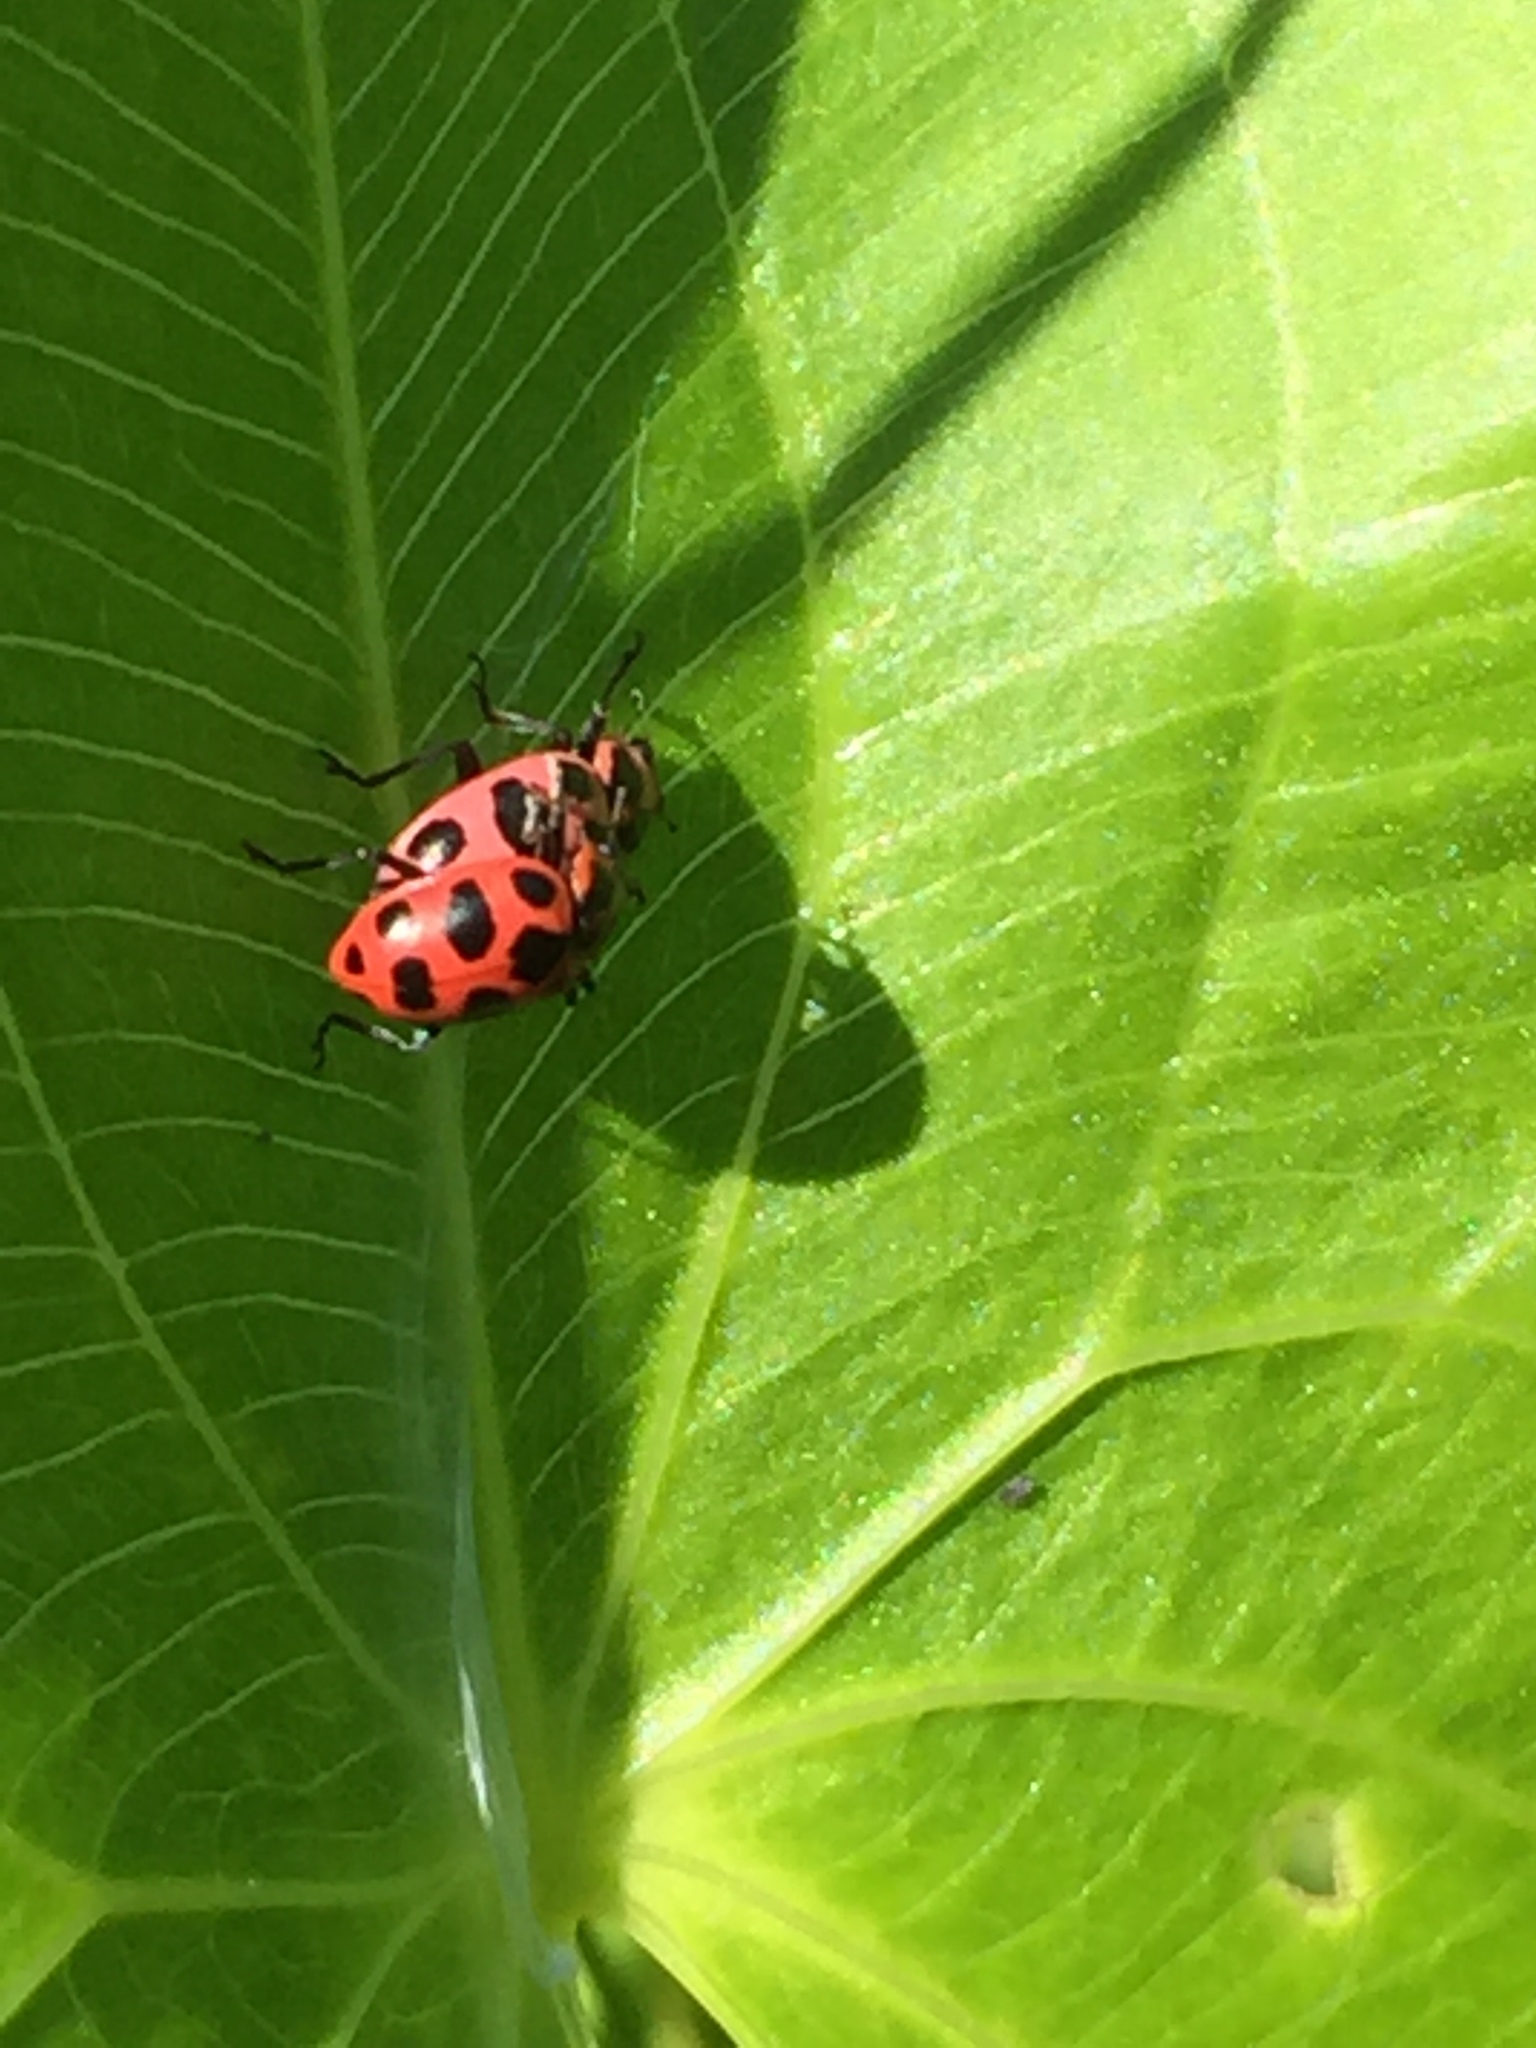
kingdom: Animalia
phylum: Arthropoda
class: Insecta
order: Coleoptera
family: Coccinellidae
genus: Coleomegilla
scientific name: Coleomegilla maculata
